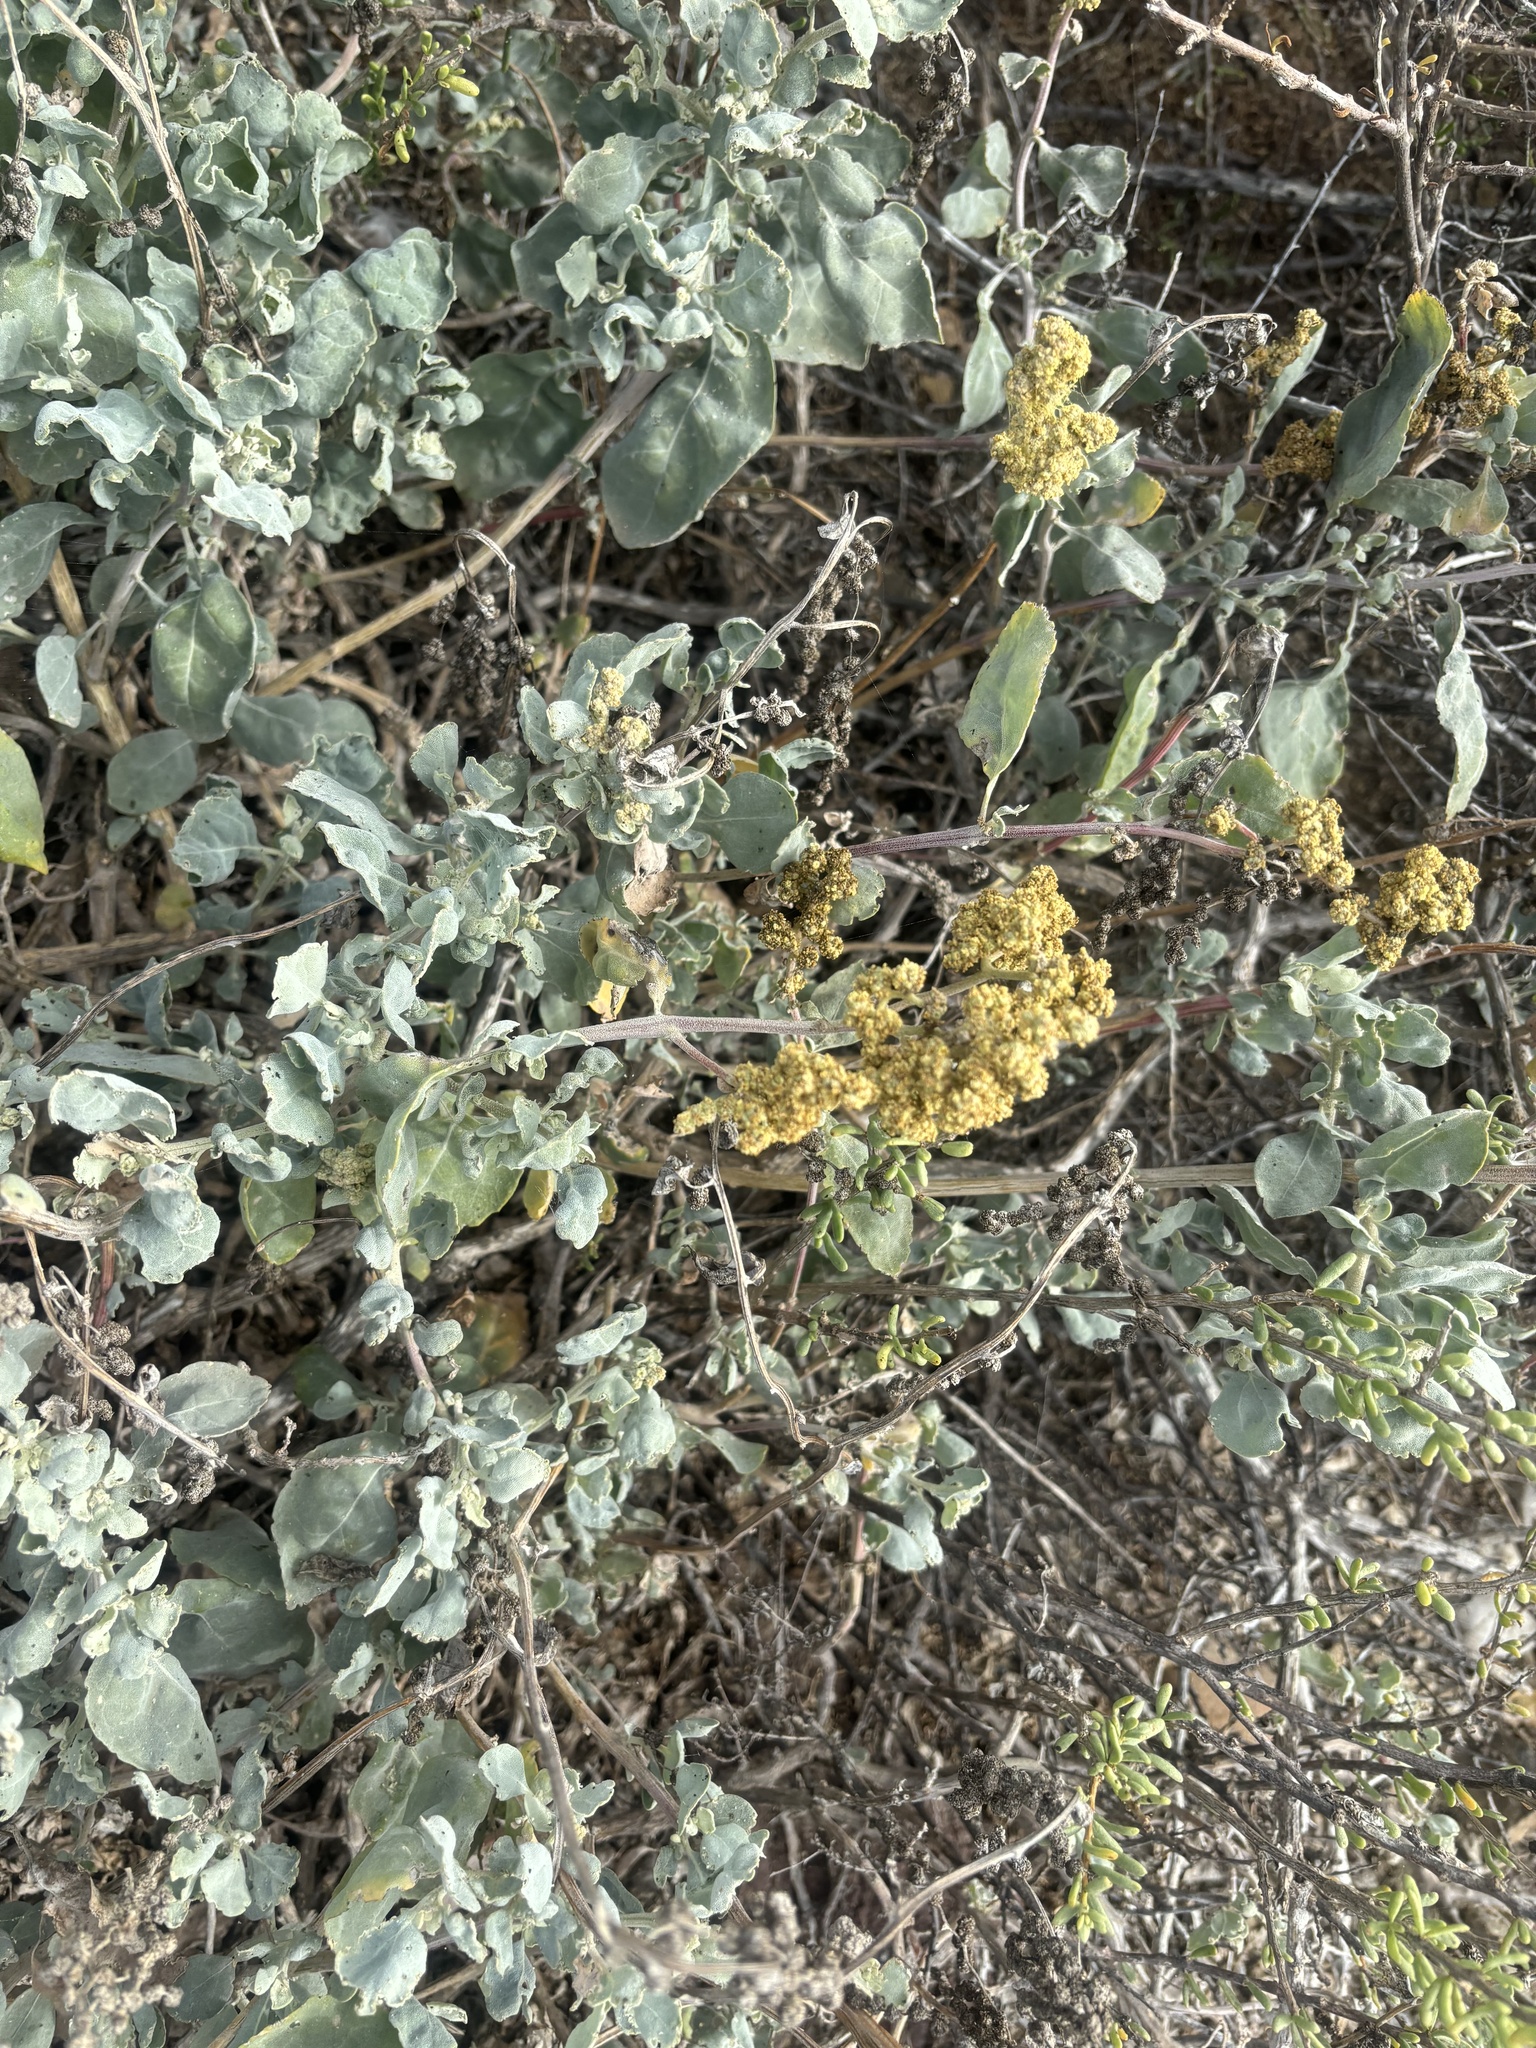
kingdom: Plantae
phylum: Tracheophyta
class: Magnoliopsida
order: Caryophyllales
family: Amaranthaceae
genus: Atriplex
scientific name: Atriplex barclayana
